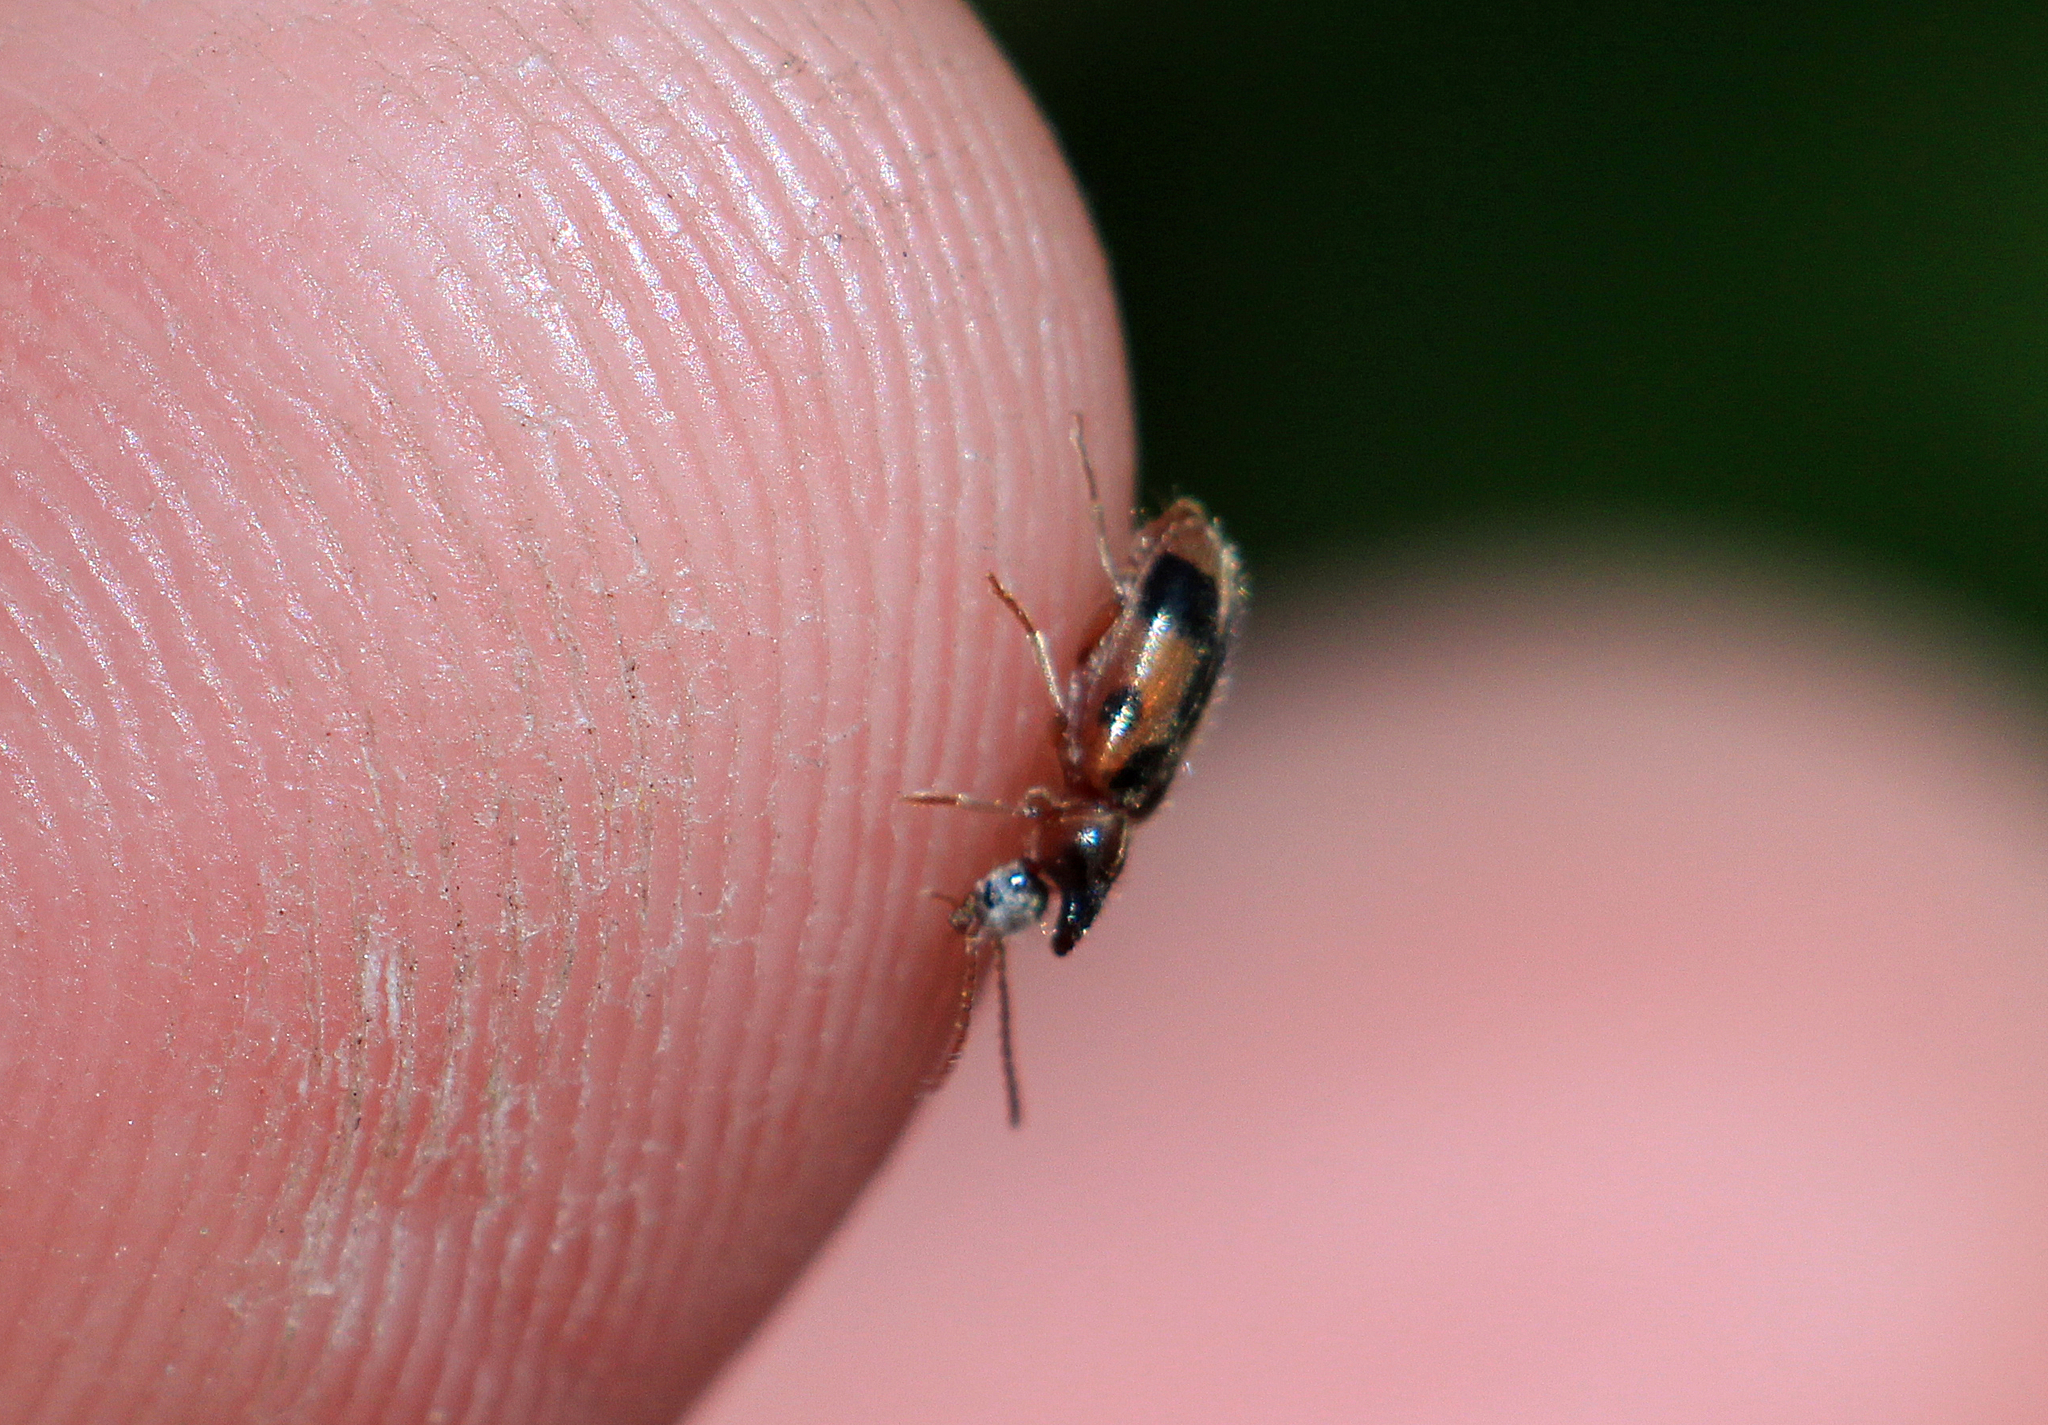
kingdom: Animalia
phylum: Arthropoda
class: Insecta
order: Coleoptera
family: Anthicidae
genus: Notoxus
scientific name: Notoxus monoceros
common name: Monoceros beetle
